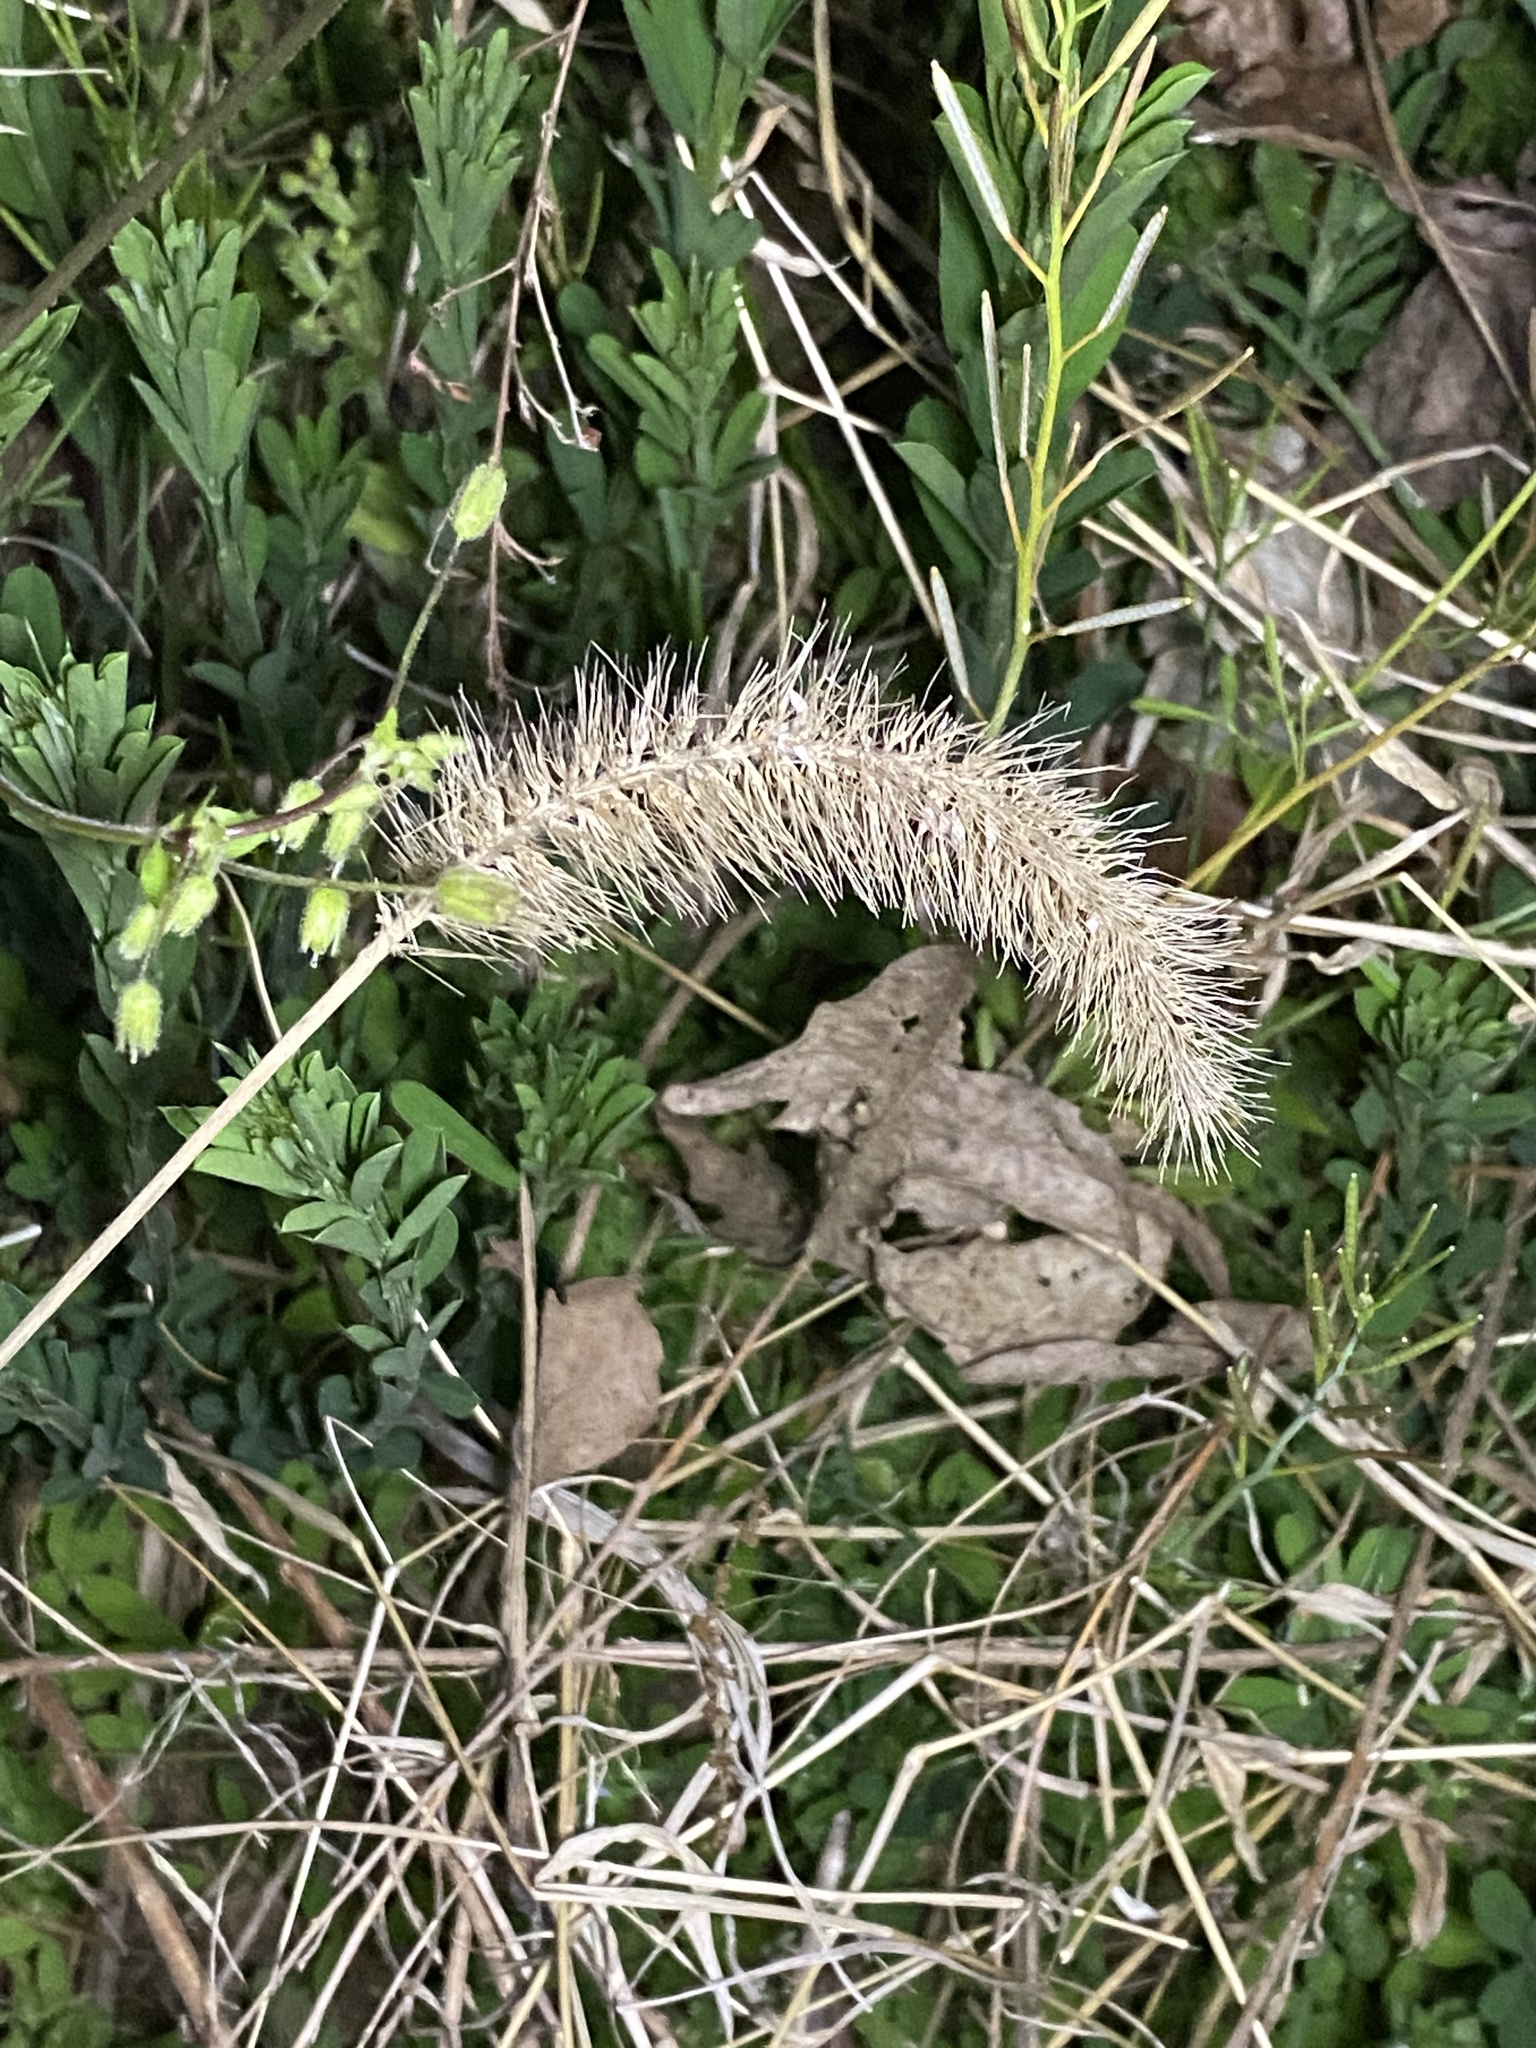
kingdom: Plantae
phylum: Tracheophyta
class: Liliopsida
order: Poales
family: Poaceae
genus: Setaria
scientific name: Setaria faberi
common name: Nodding bristle-grass
